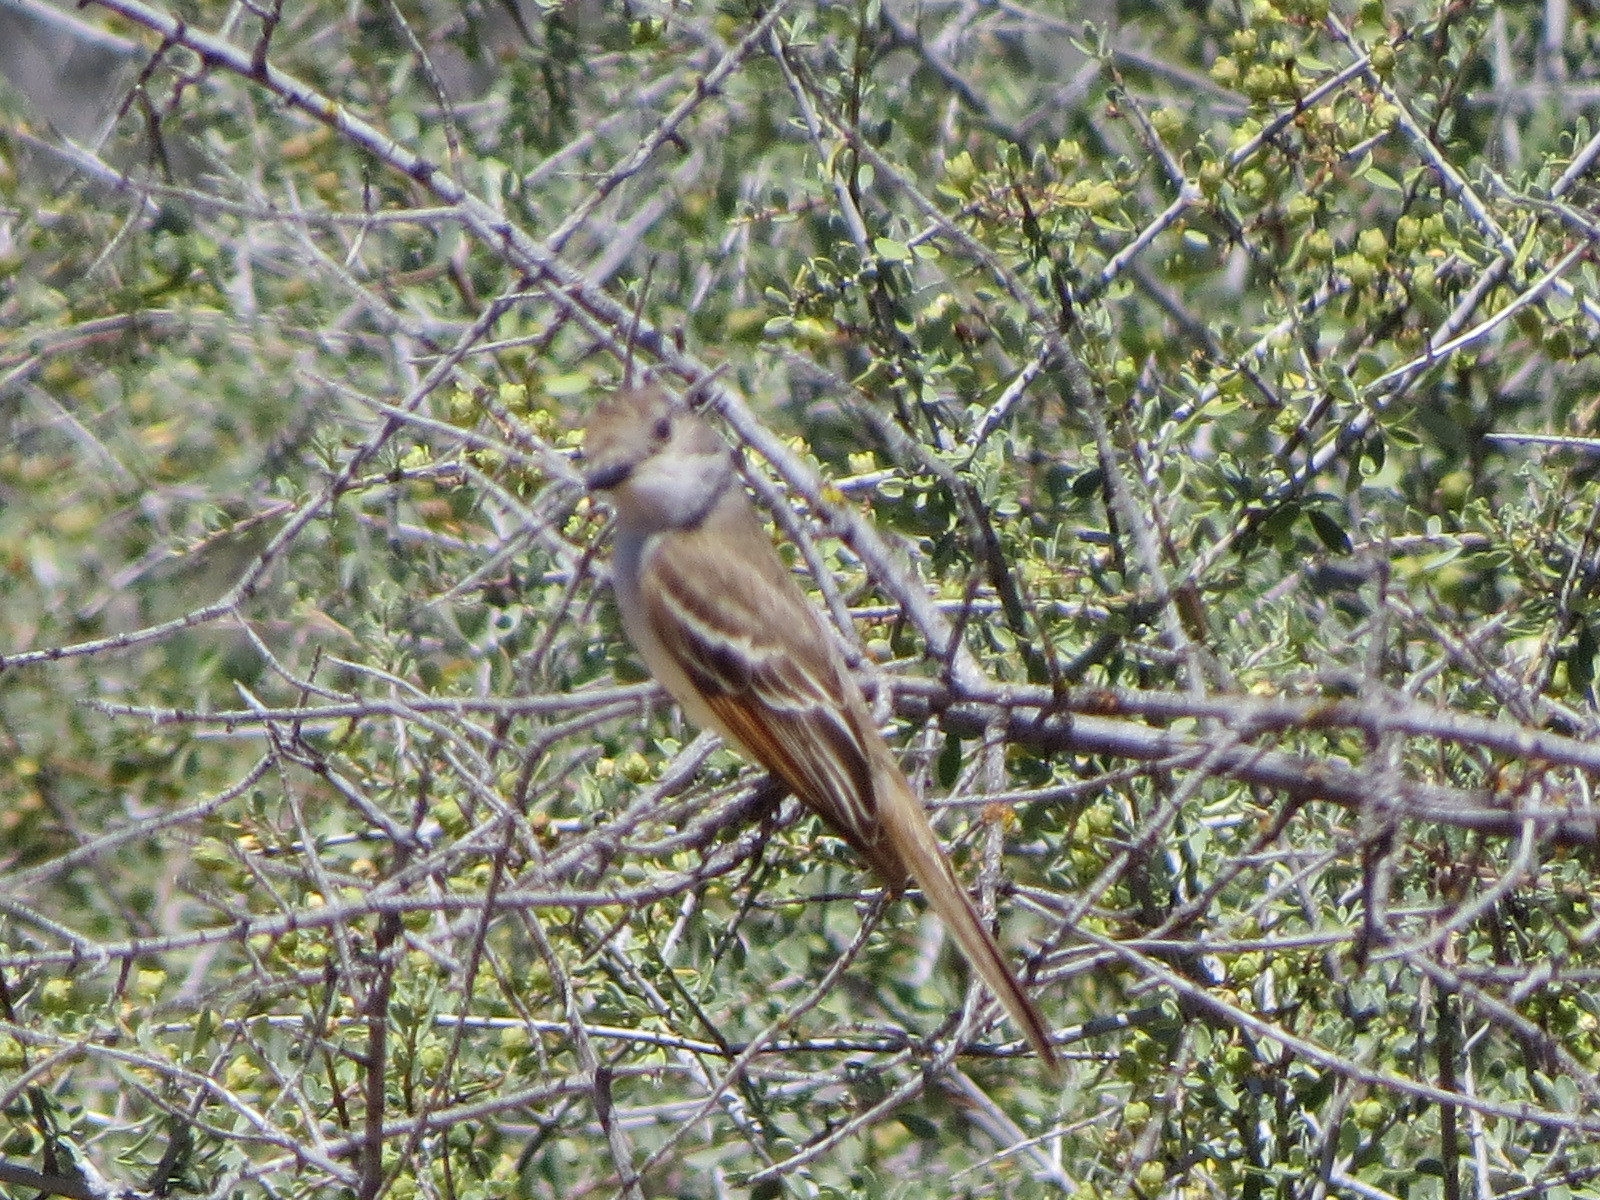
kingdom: Animalia
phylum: Chordata
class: Aves
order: Passeriformes
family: Tyrannidae
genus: Myiarchus
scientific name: Myiarchus cinerascens
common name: Ash-throated flycatcher
